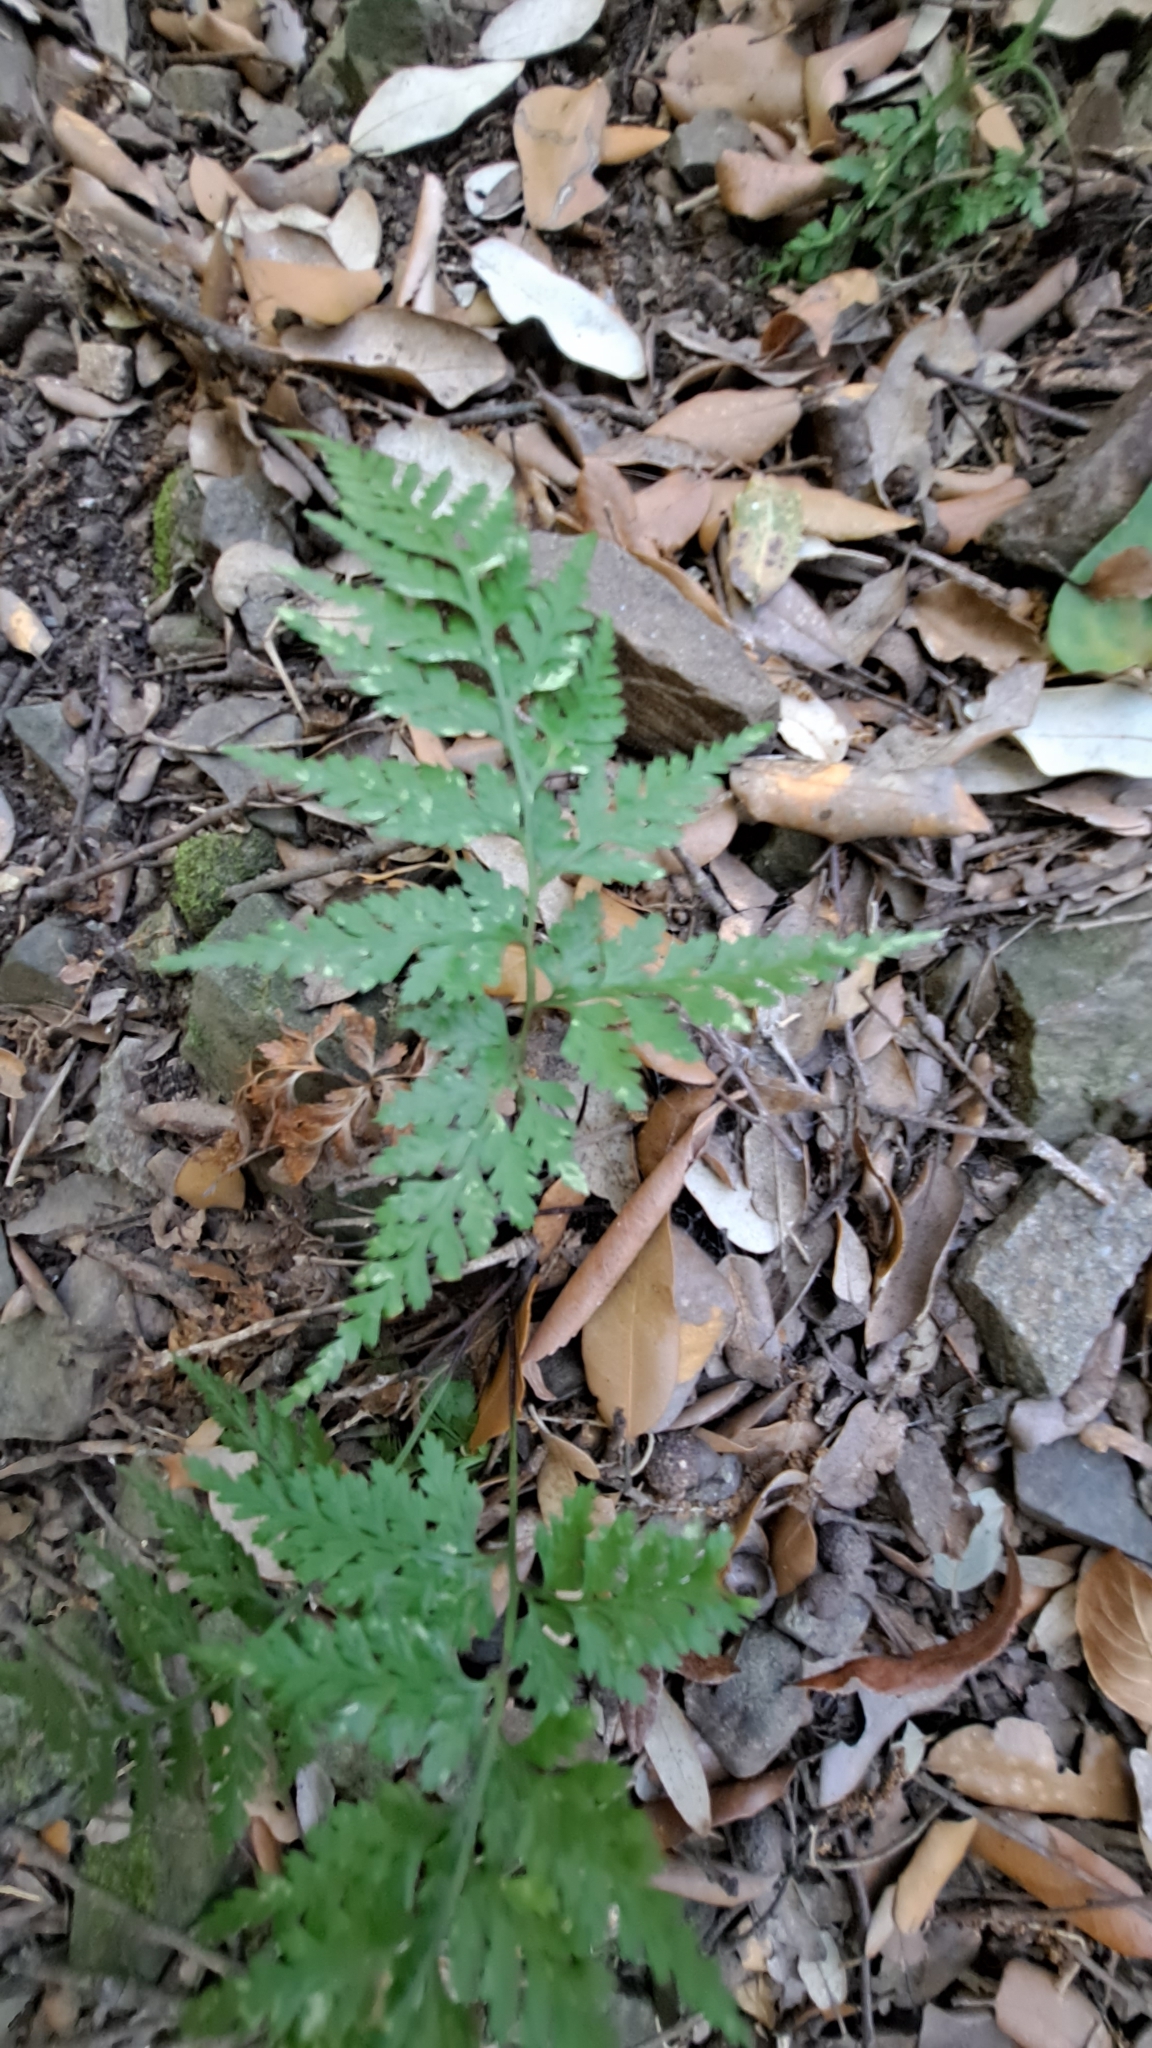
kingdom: Plantae
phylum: Tracheophyta
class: Polypodiopsida
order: Polypodiales
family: Aspleniaceae
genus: Asplenium
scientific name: Asplenium onopteris
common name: Irish spleenwort
